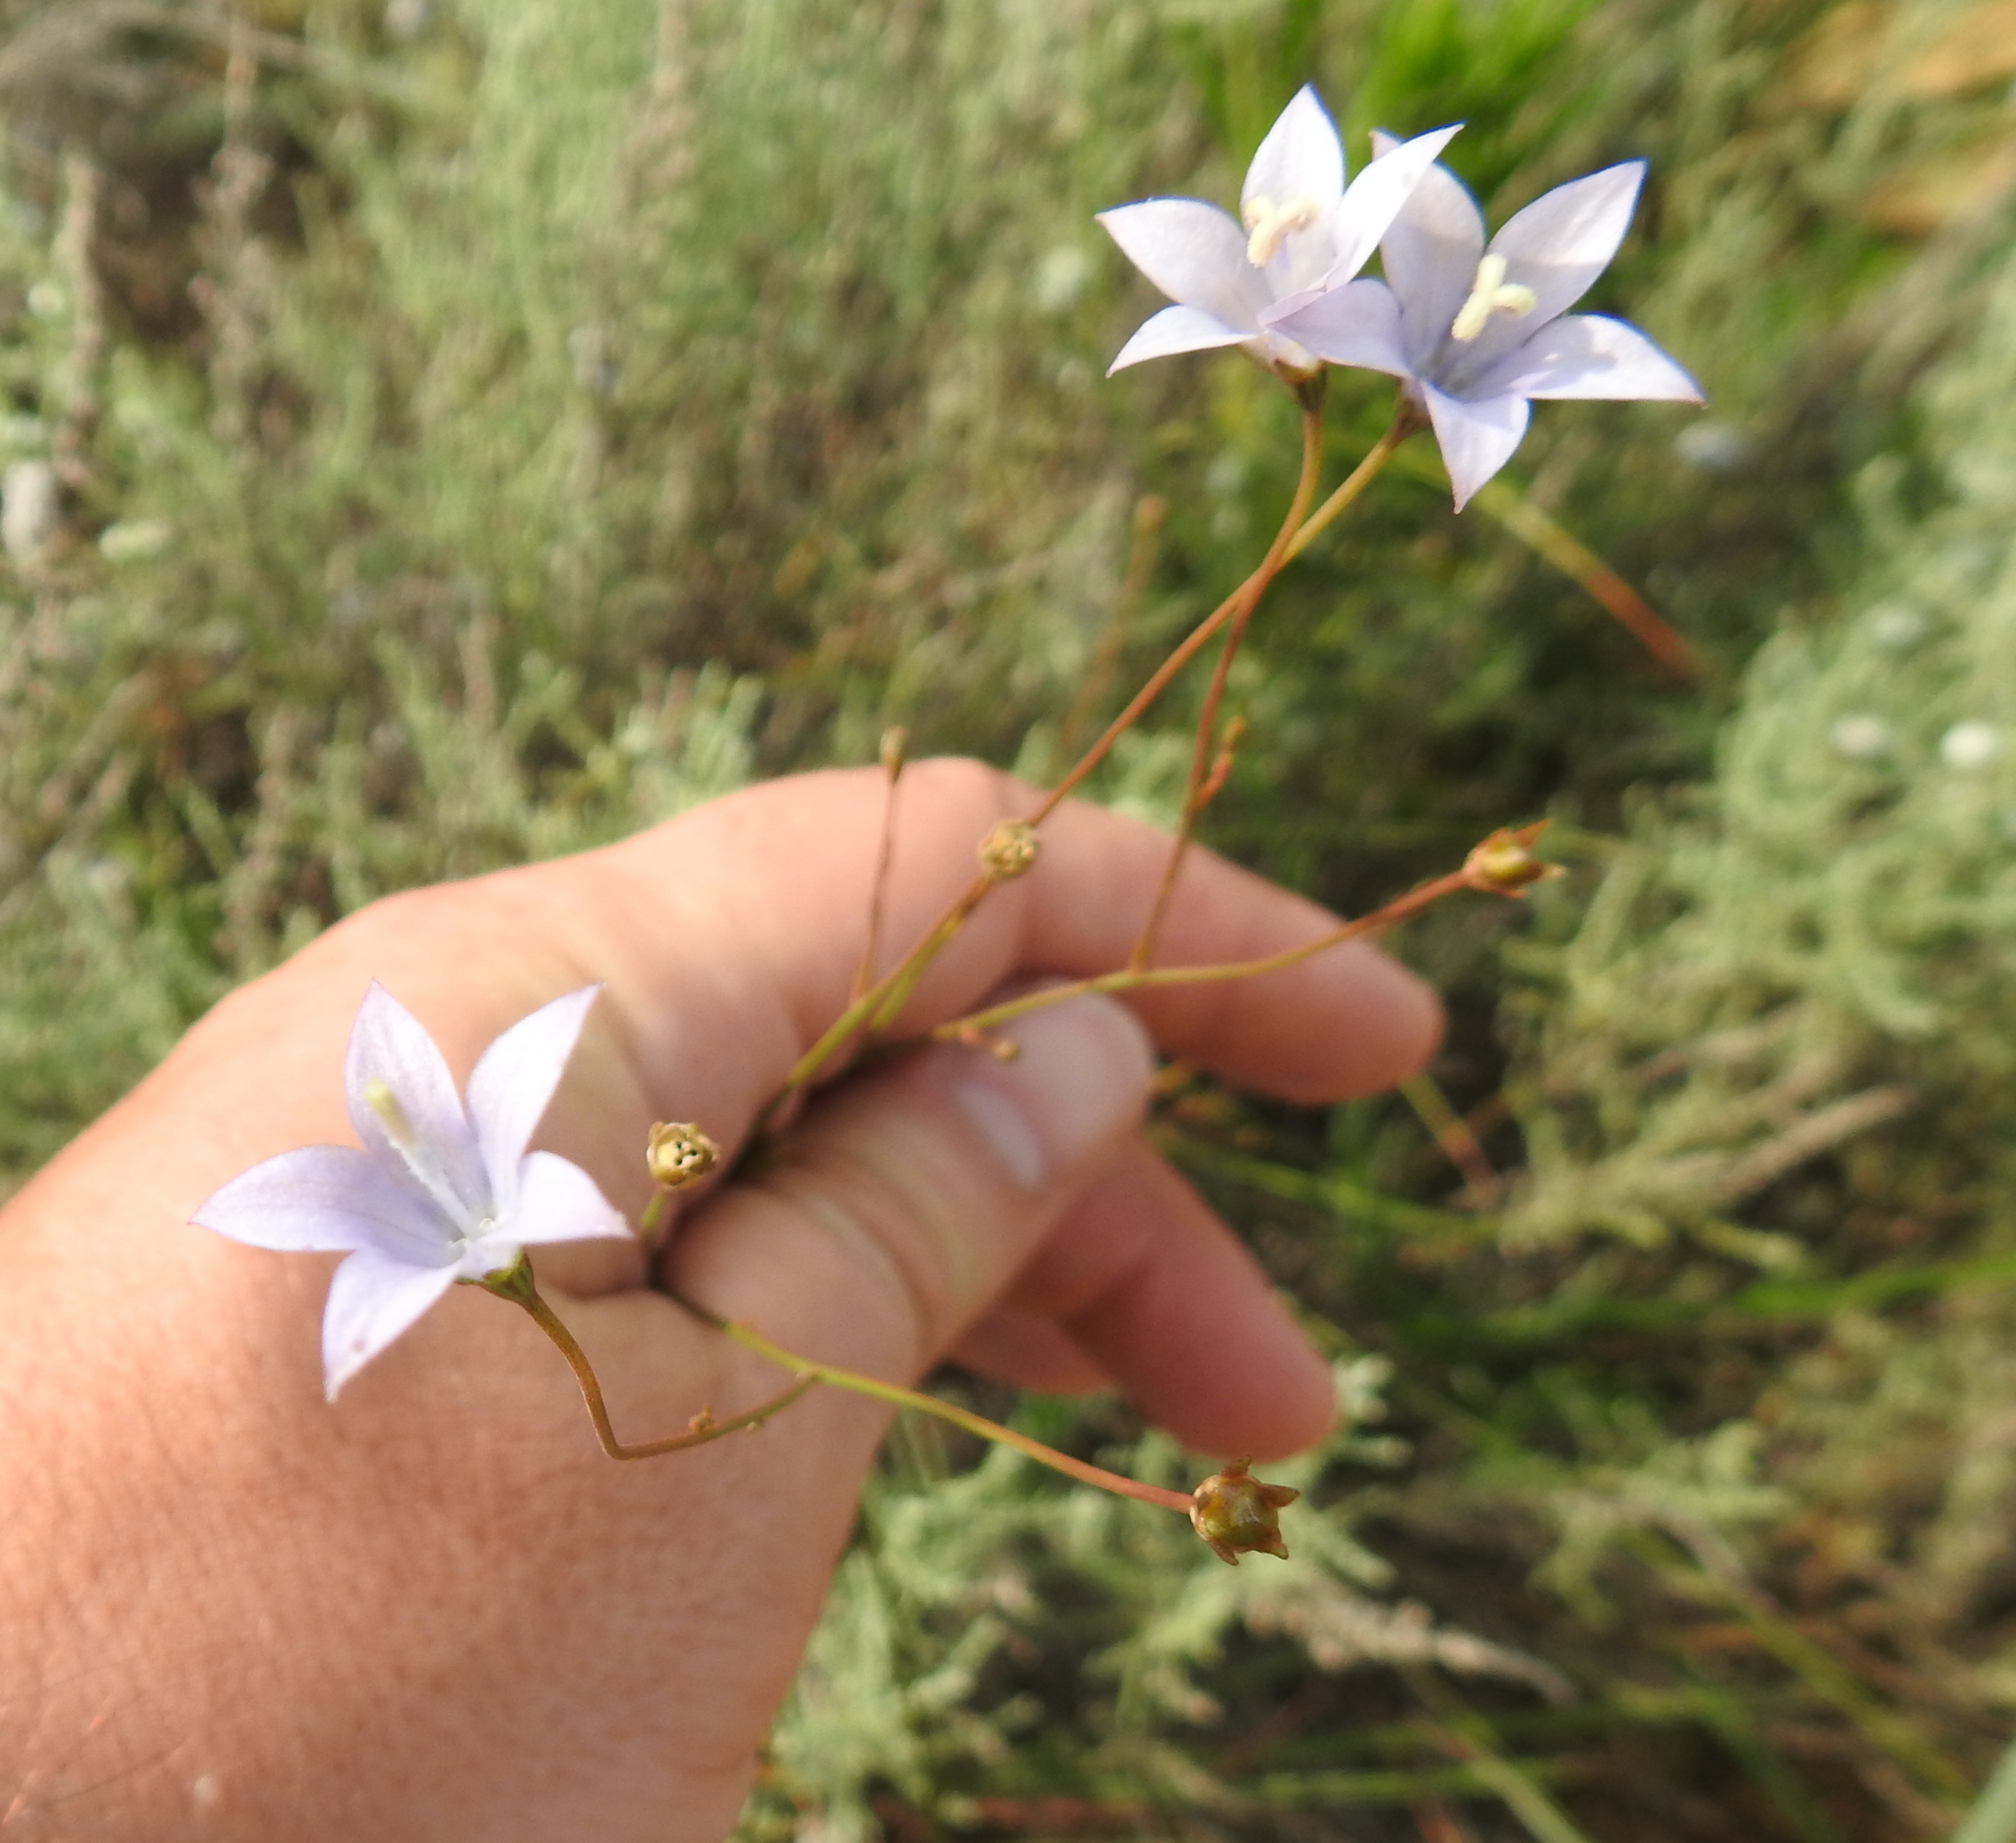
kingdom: Plantae
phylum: Tracheophyta
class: Magnoliopsida
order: Asterales
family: Campanulaceae
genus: Wahlenbergia
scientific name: Wahlenbergia undulata
